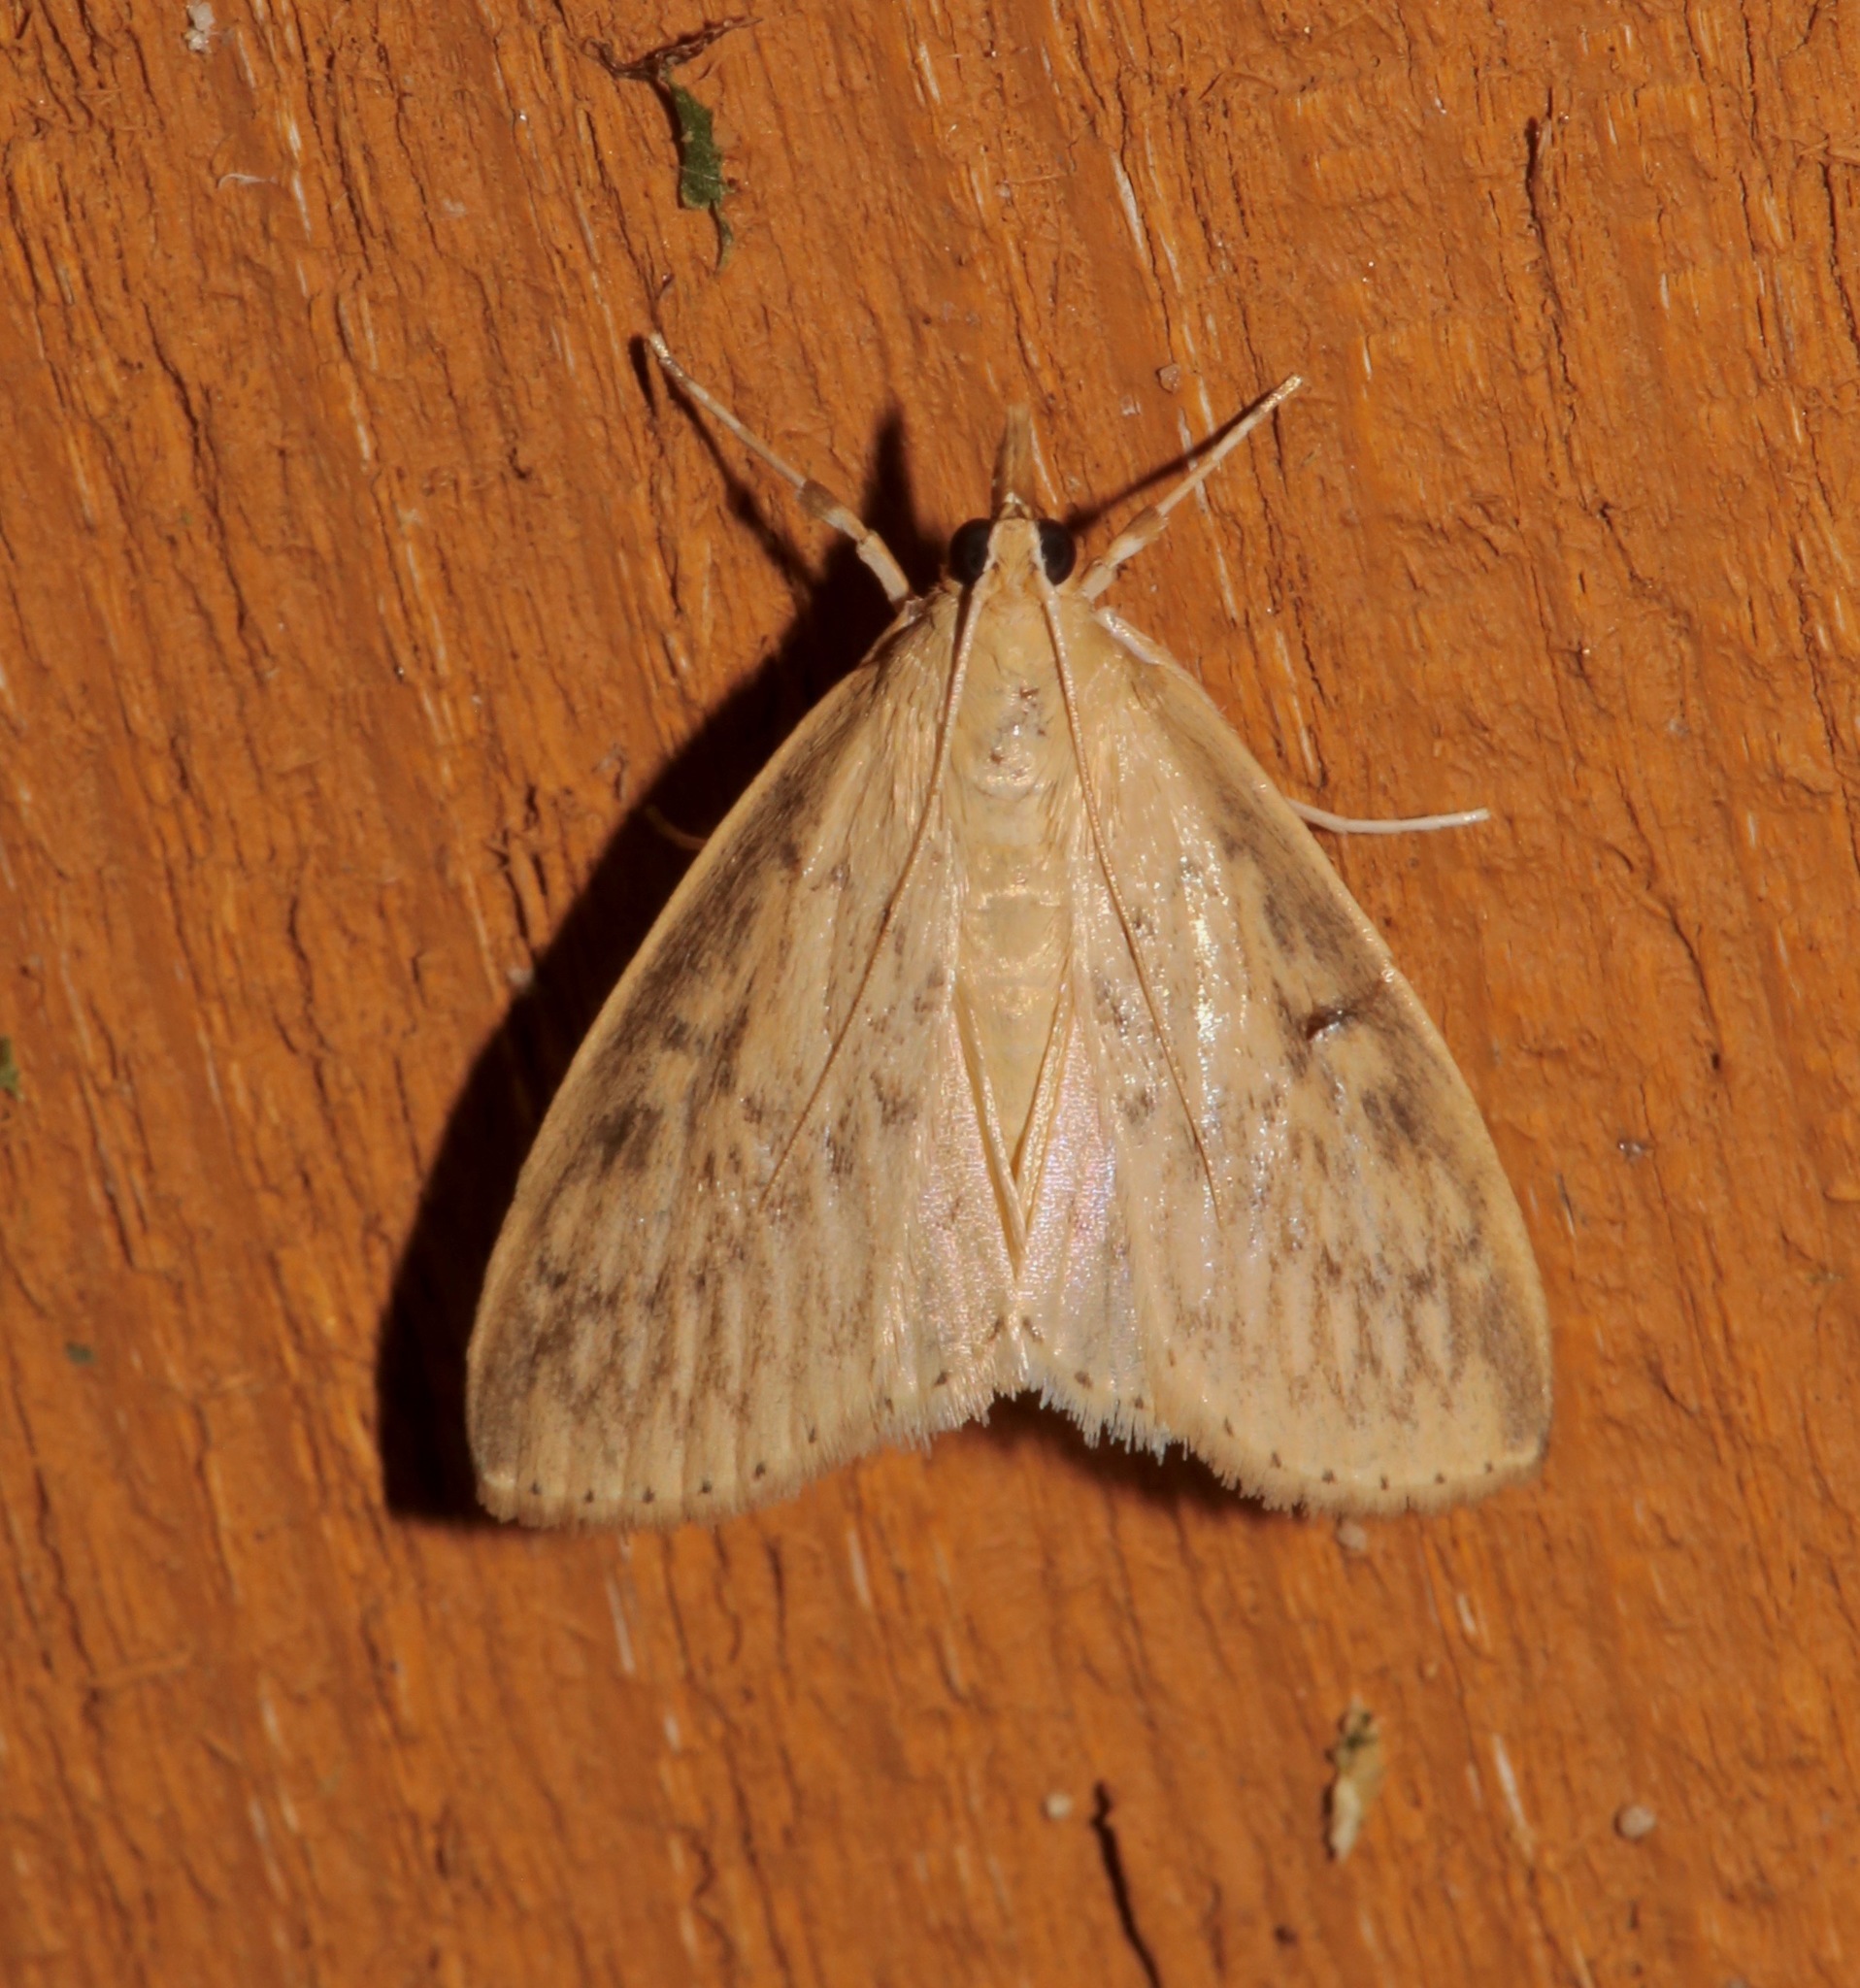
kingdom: Animalia
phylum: Arthropoda
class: Insecta
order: Lepidoptera
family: Crambidae
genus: Crocidophora
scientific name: Crocidophora pustuliferalis
